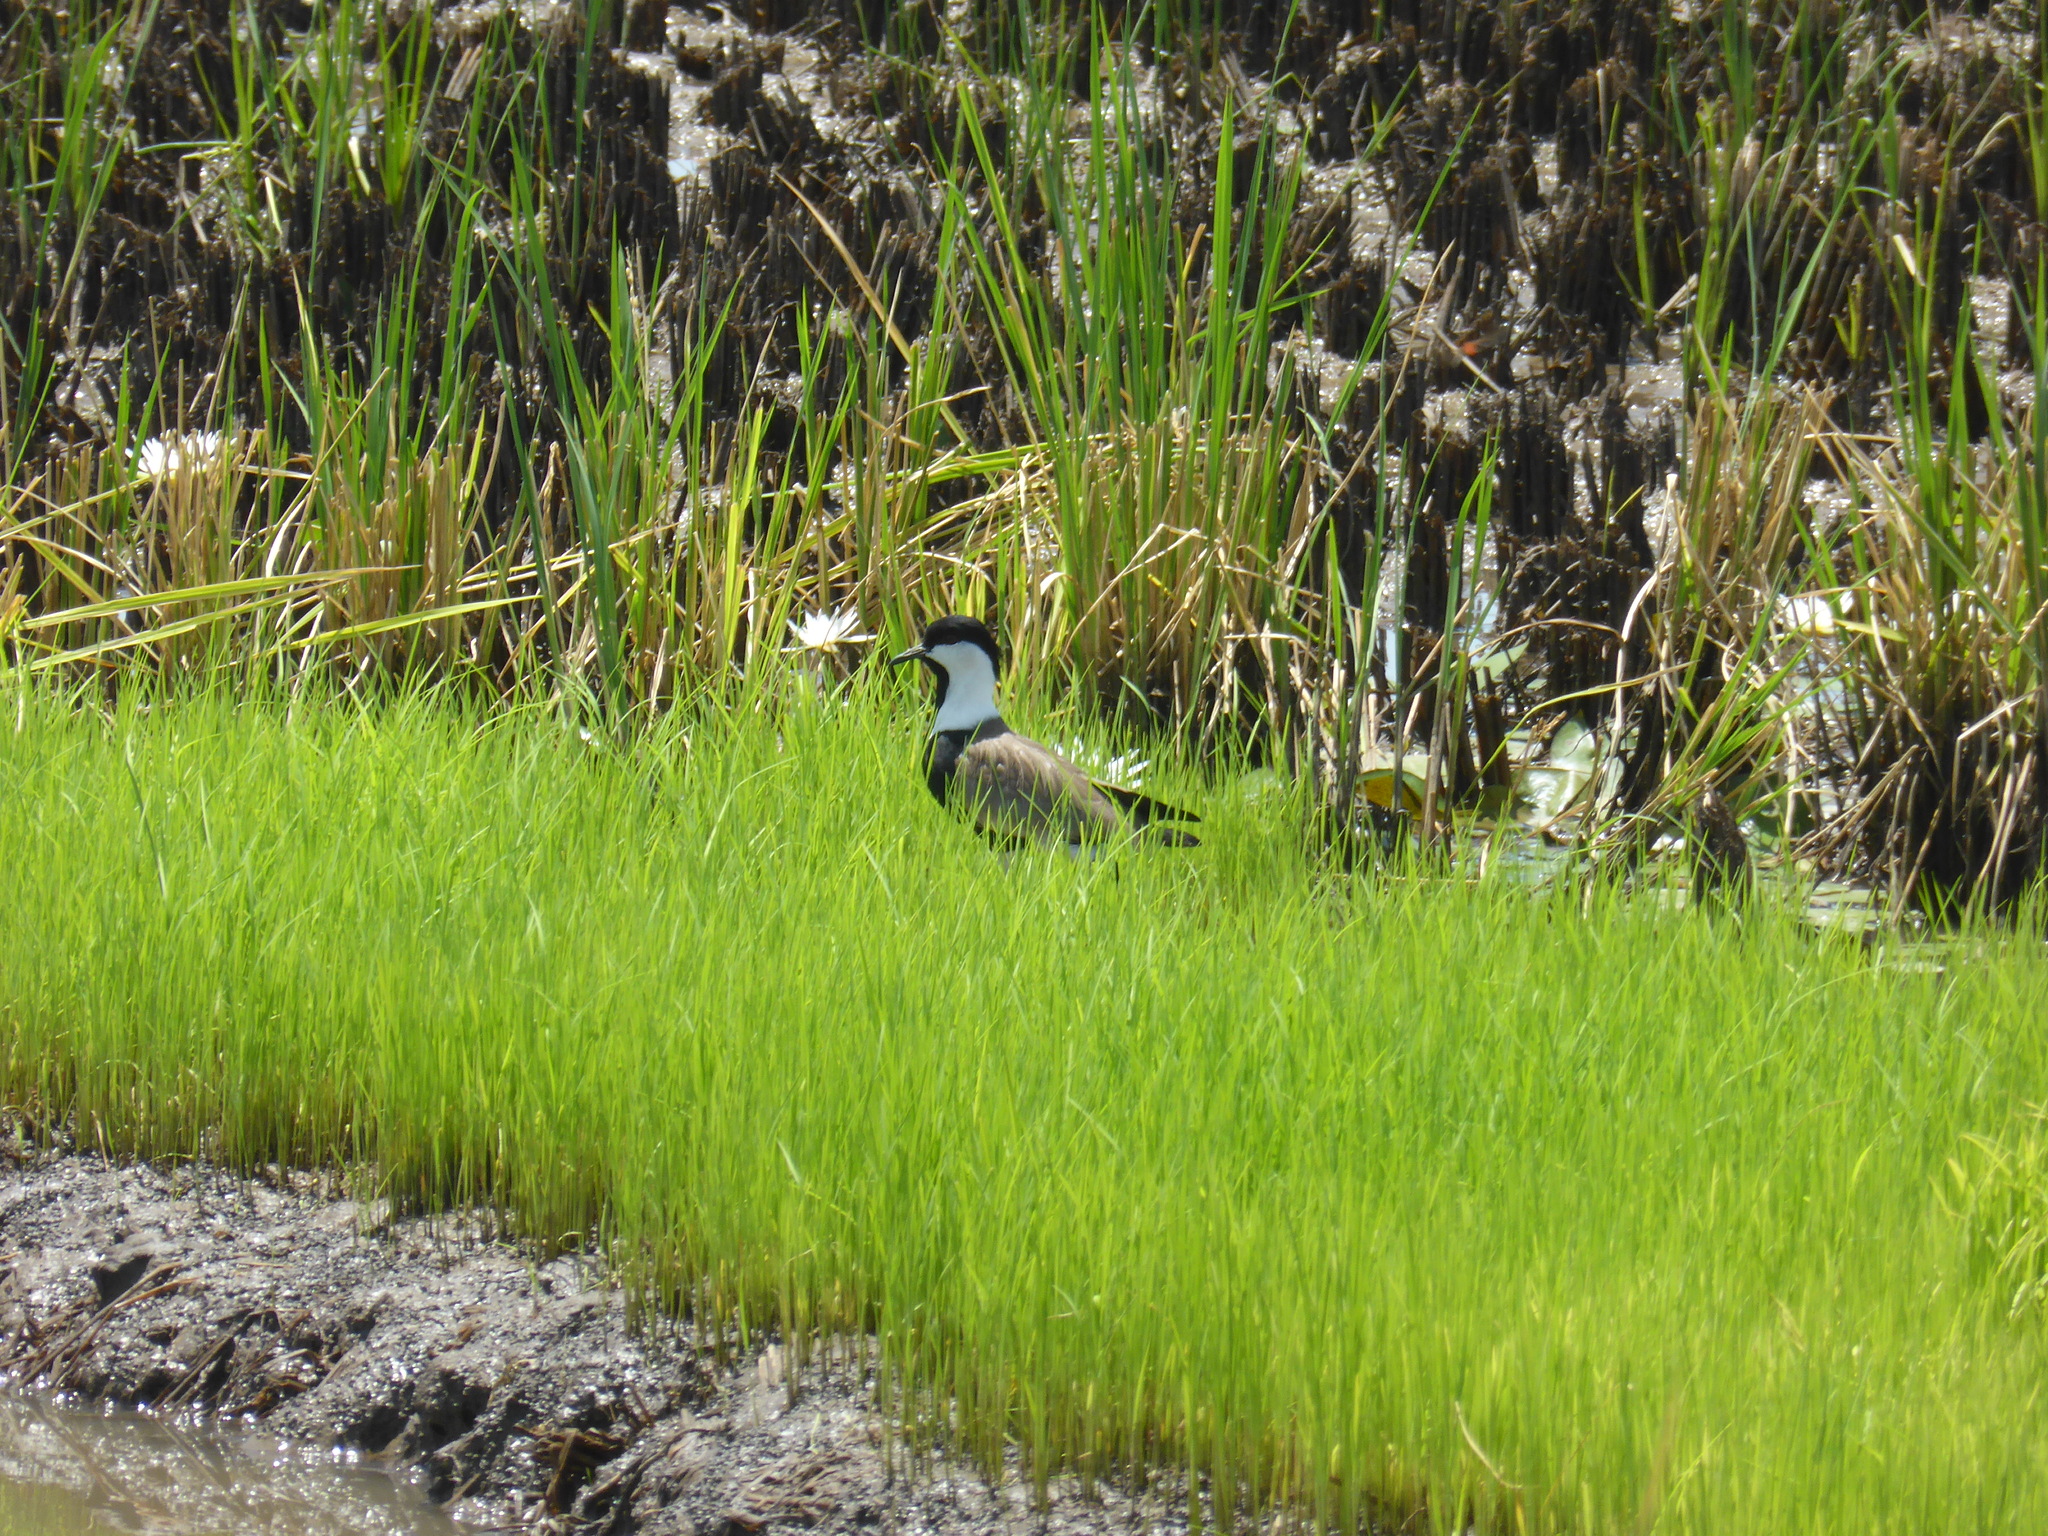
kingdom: Animalia
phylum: Chordata
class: Aves
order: Charadriiformes
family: Charadriidae
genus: Vanellus
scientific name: Vanellus spinosus
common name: Spur-winged lapwing
